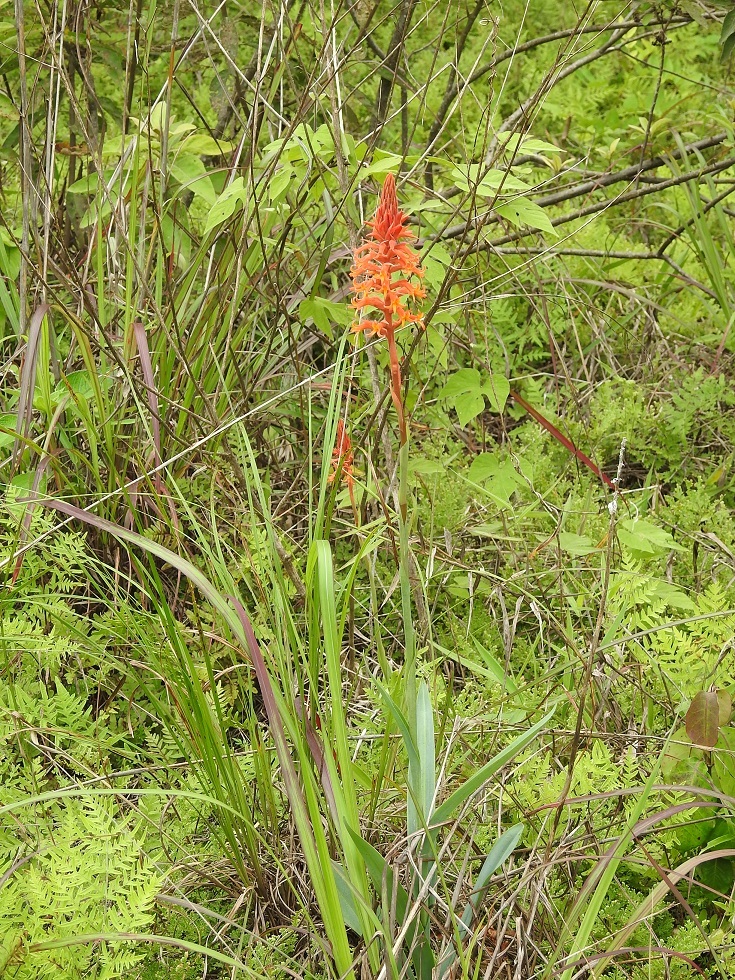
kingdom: Plantae
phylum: Tracheophyta
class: Liliopsida
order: Asparagales
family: Orchidaceae
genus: Dichromanthus
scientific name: Dichromanthus cinnabarinus
